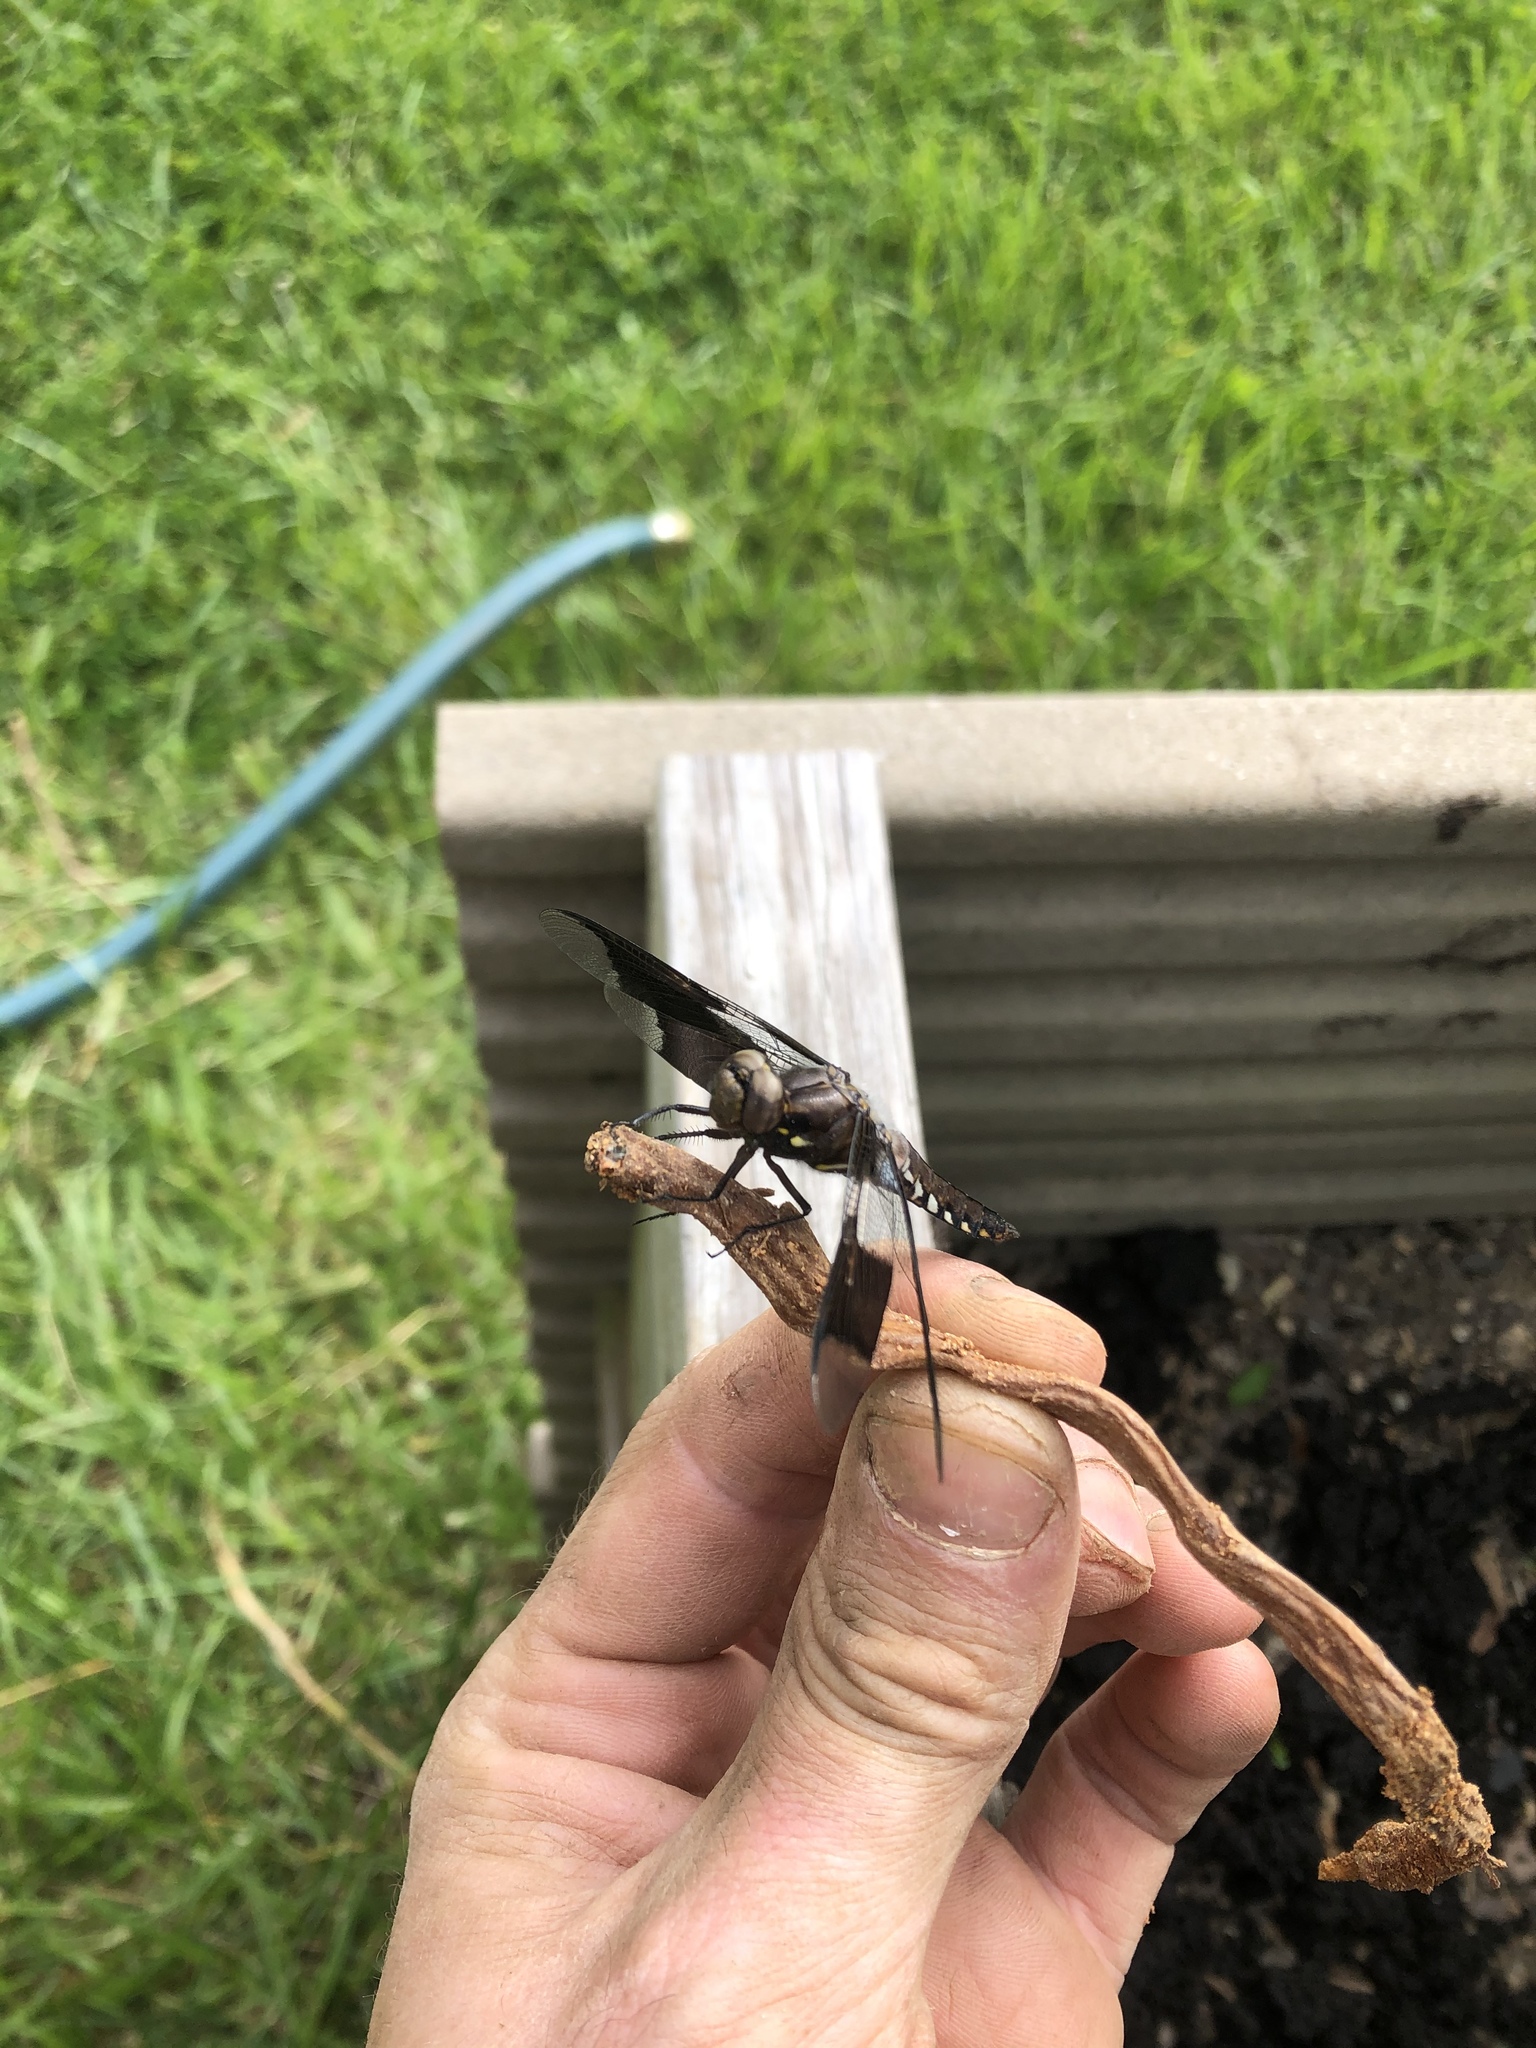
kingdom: Animalia
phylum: Arthropoda
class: Insecta
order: Odonata
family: Libellulidae
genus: Plathemis
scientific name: Plathemis lydia
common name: Common whitetail
